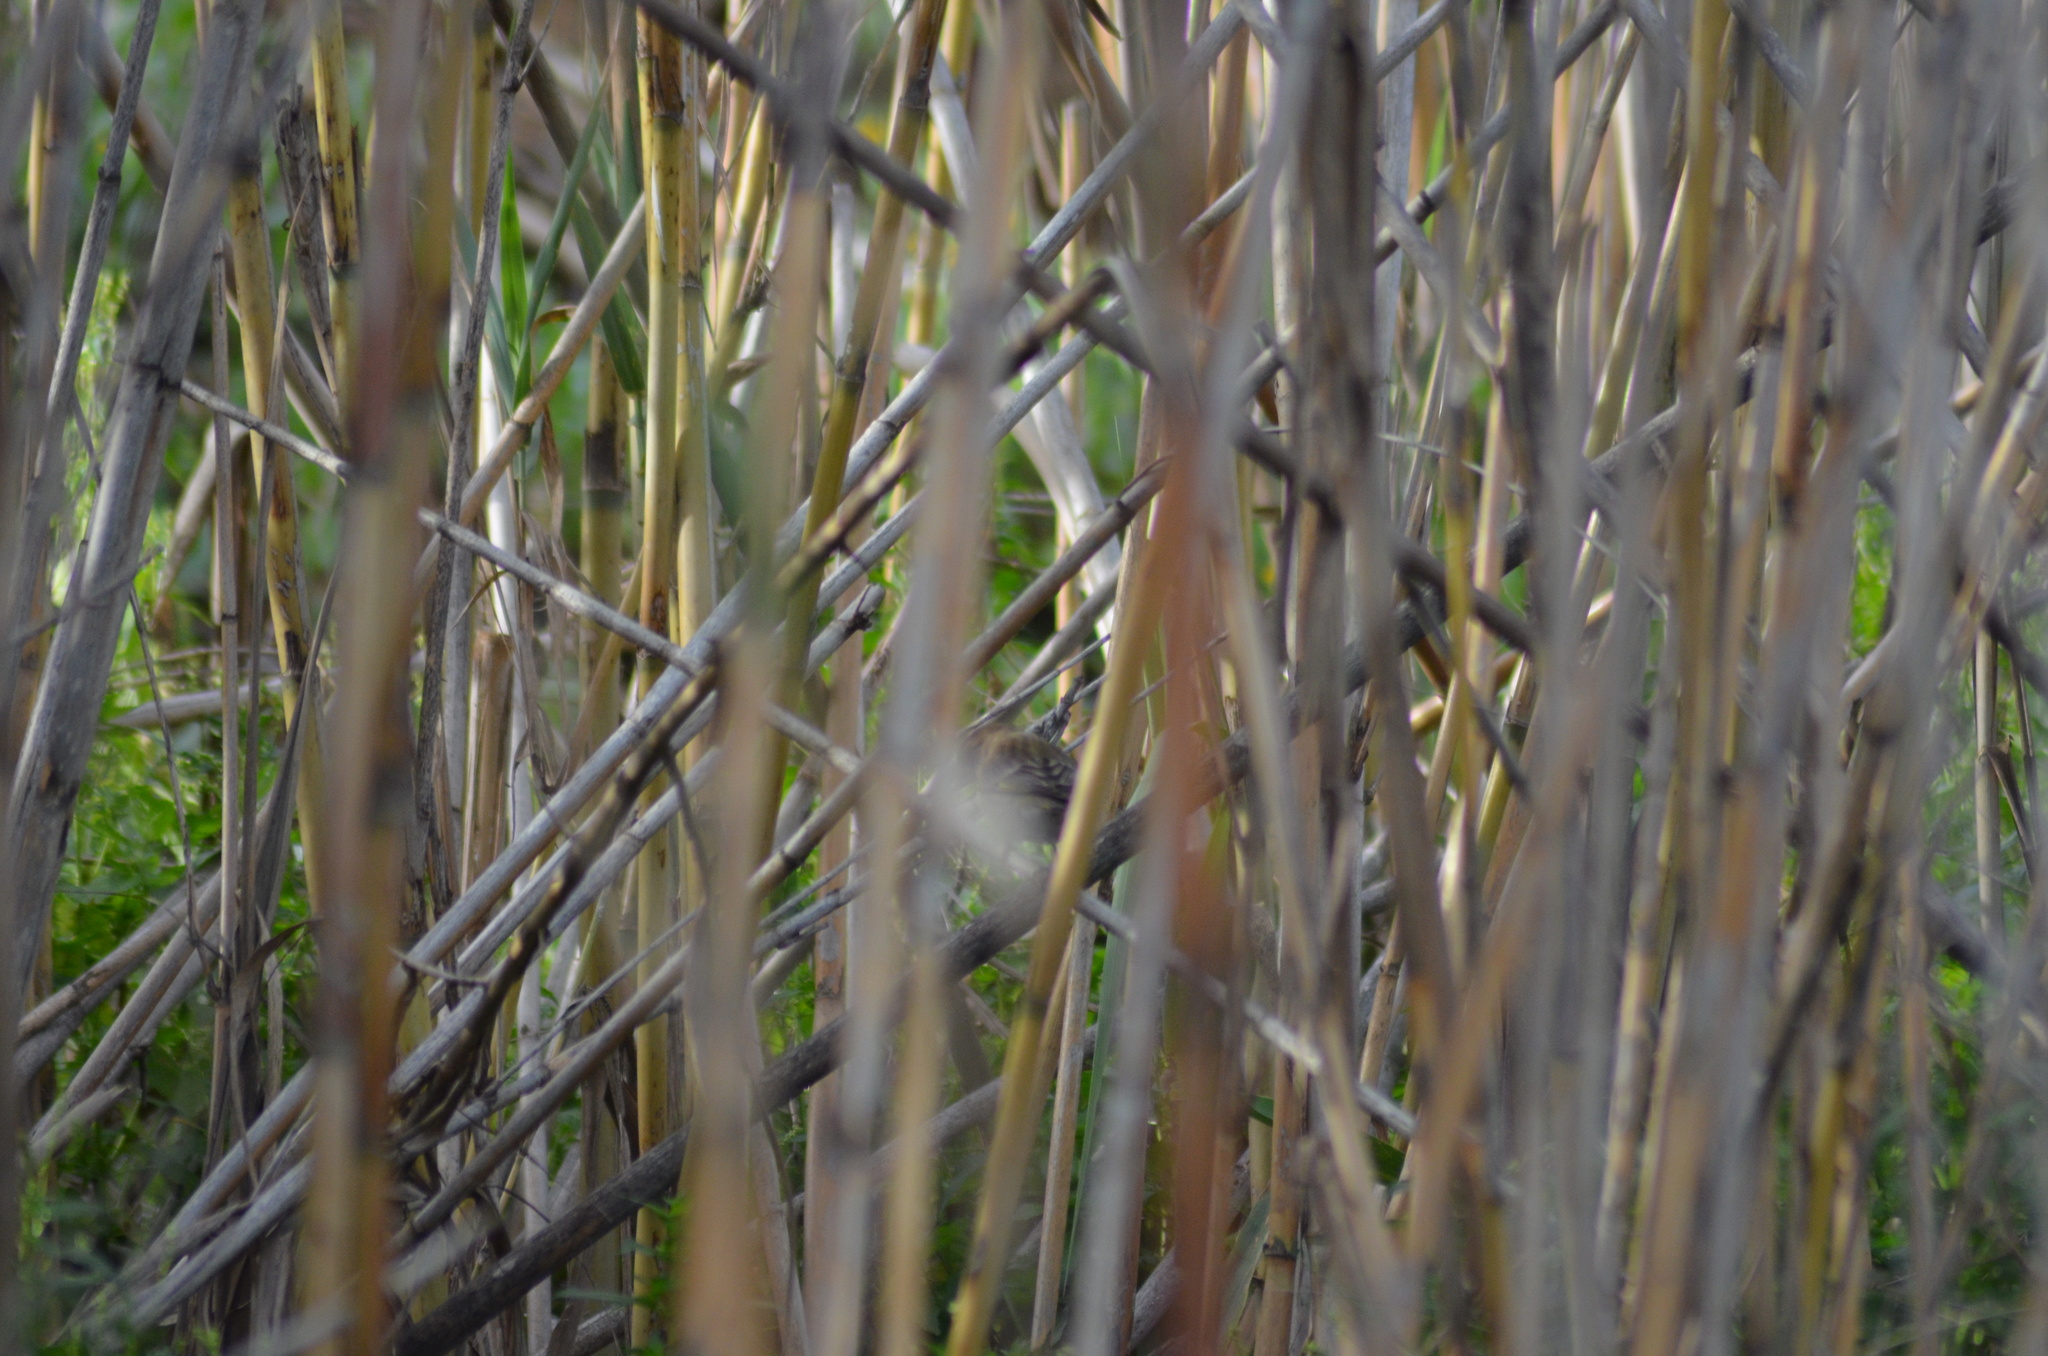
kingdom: Plantae
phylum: Tracheophyta
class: Liliopsida
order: Poales
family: Poaceae
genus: Chloris
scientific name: Chloris chloris
